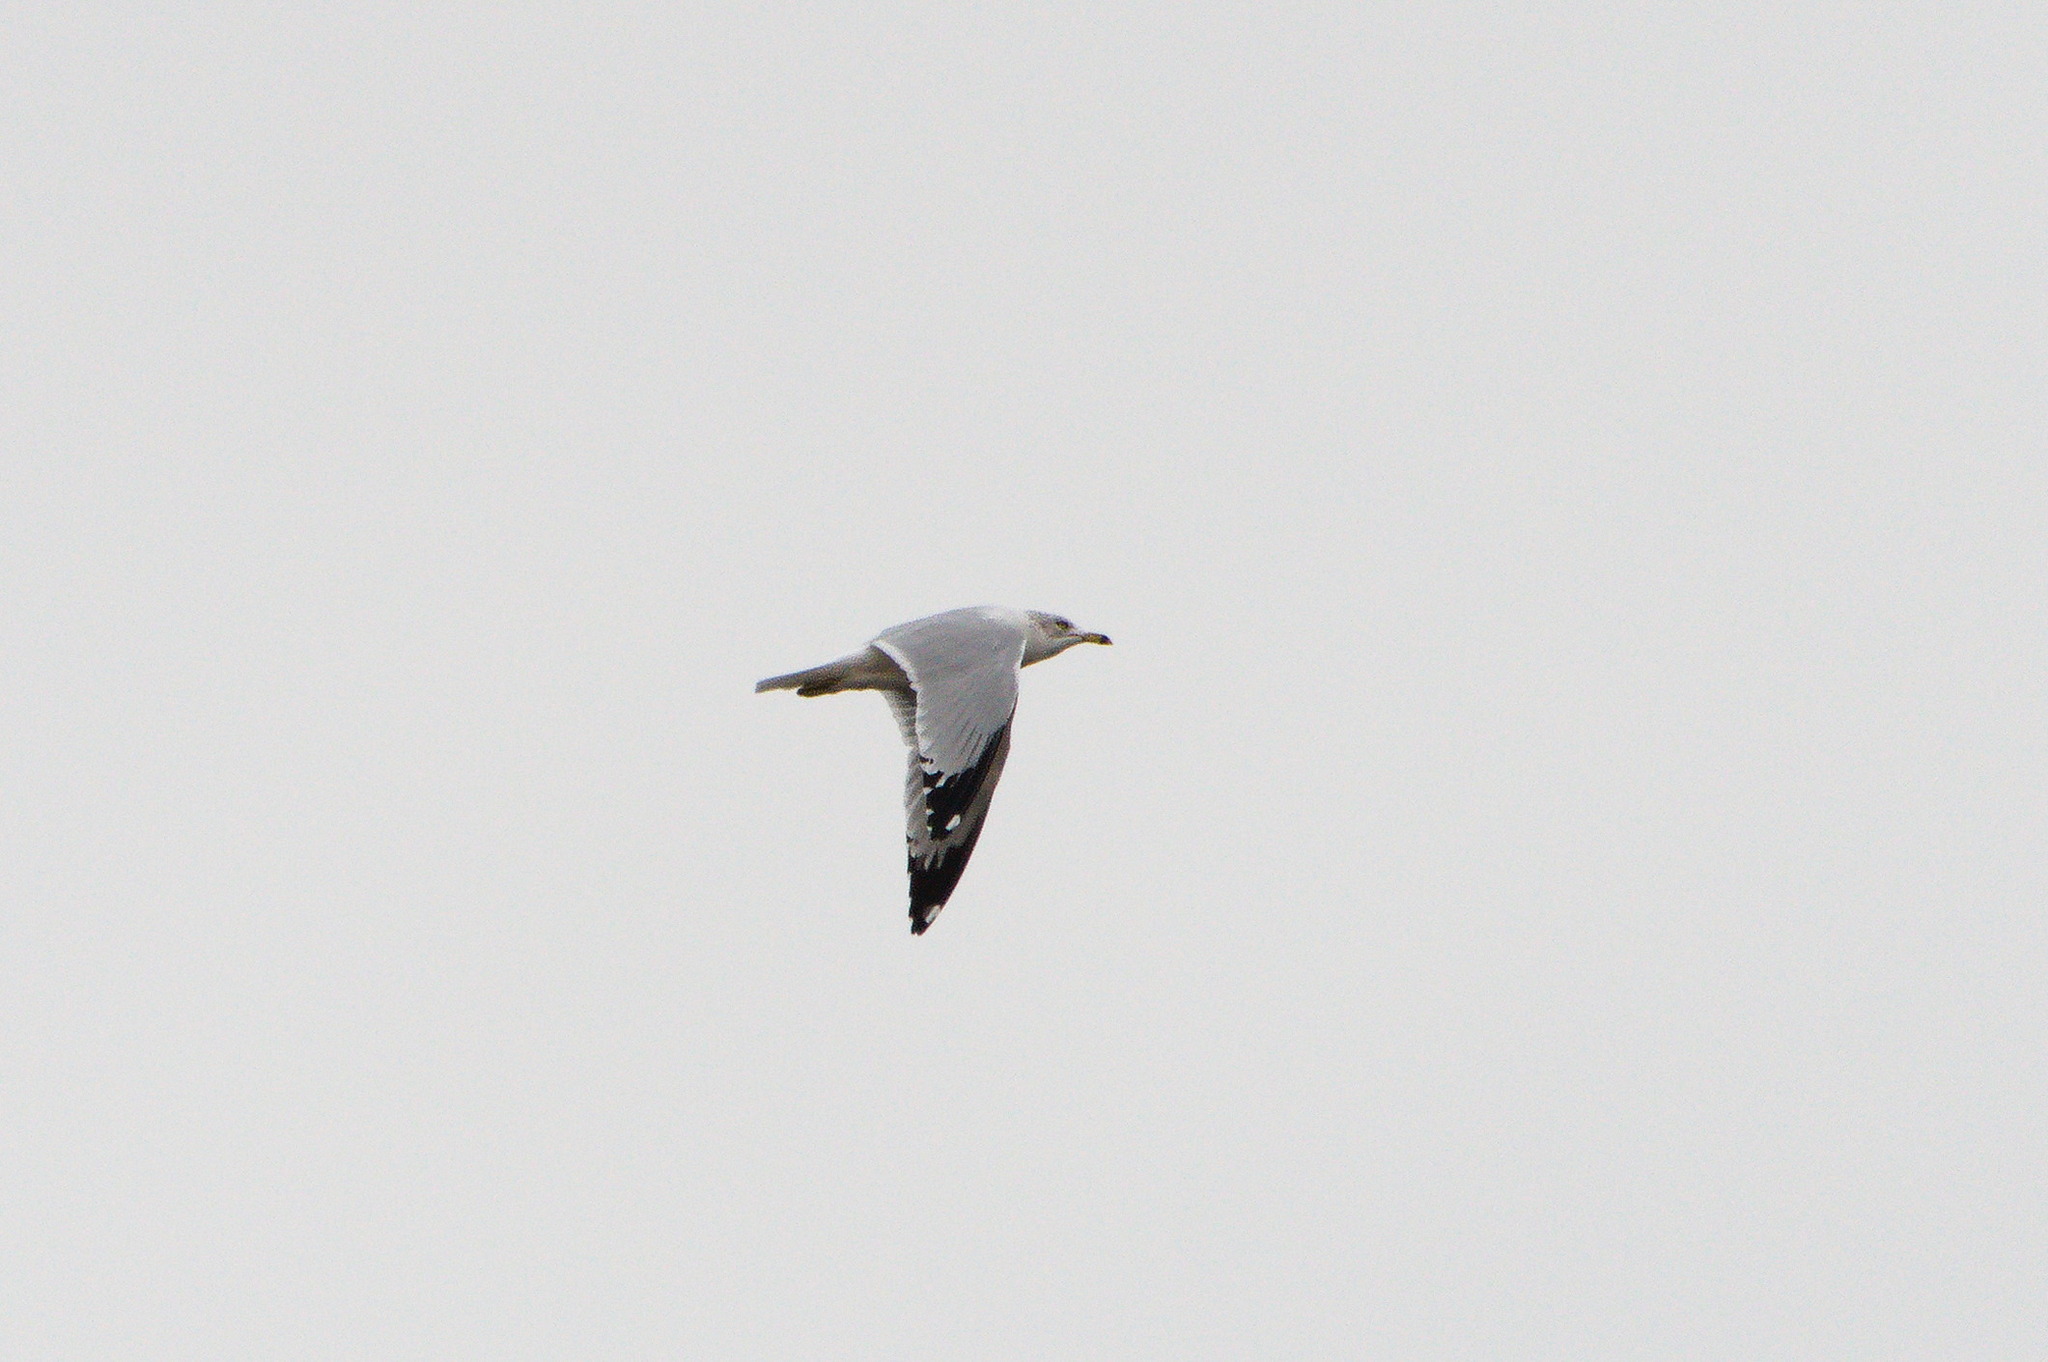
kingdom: Animalia
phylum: Chordata
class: Aves
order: Charadriiformes
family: Laridae
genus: Larus
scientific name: Larus delawarensis
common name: Ring-billed gull
